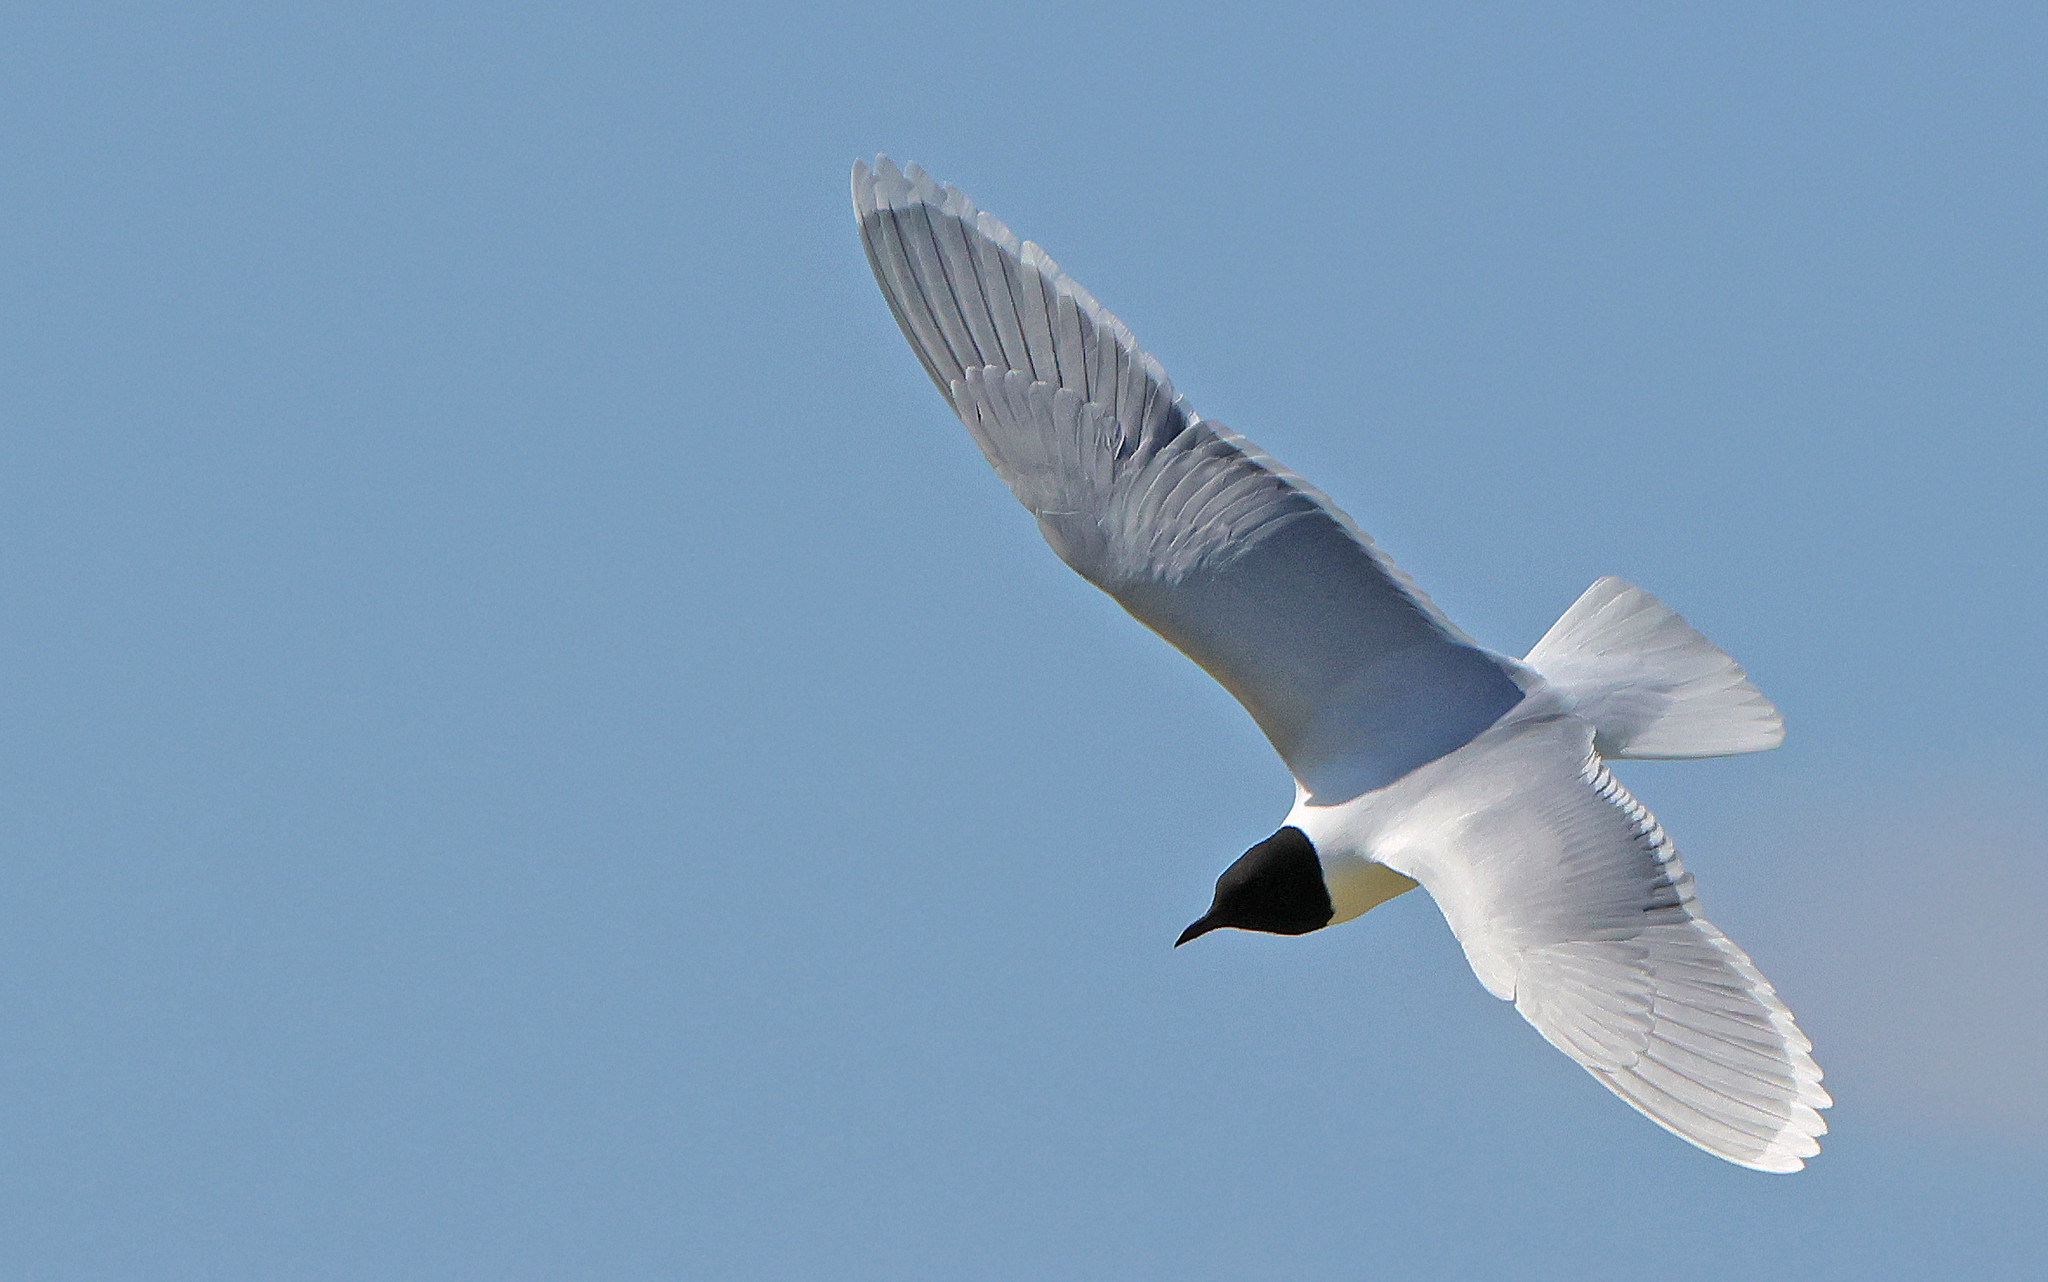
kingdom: Animalia
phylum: Chordata
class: Aves
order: Charadriiformes
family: Laridae
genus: Hydrocoloeus
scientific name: Hydrocoloeus minutus
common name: Little gull
